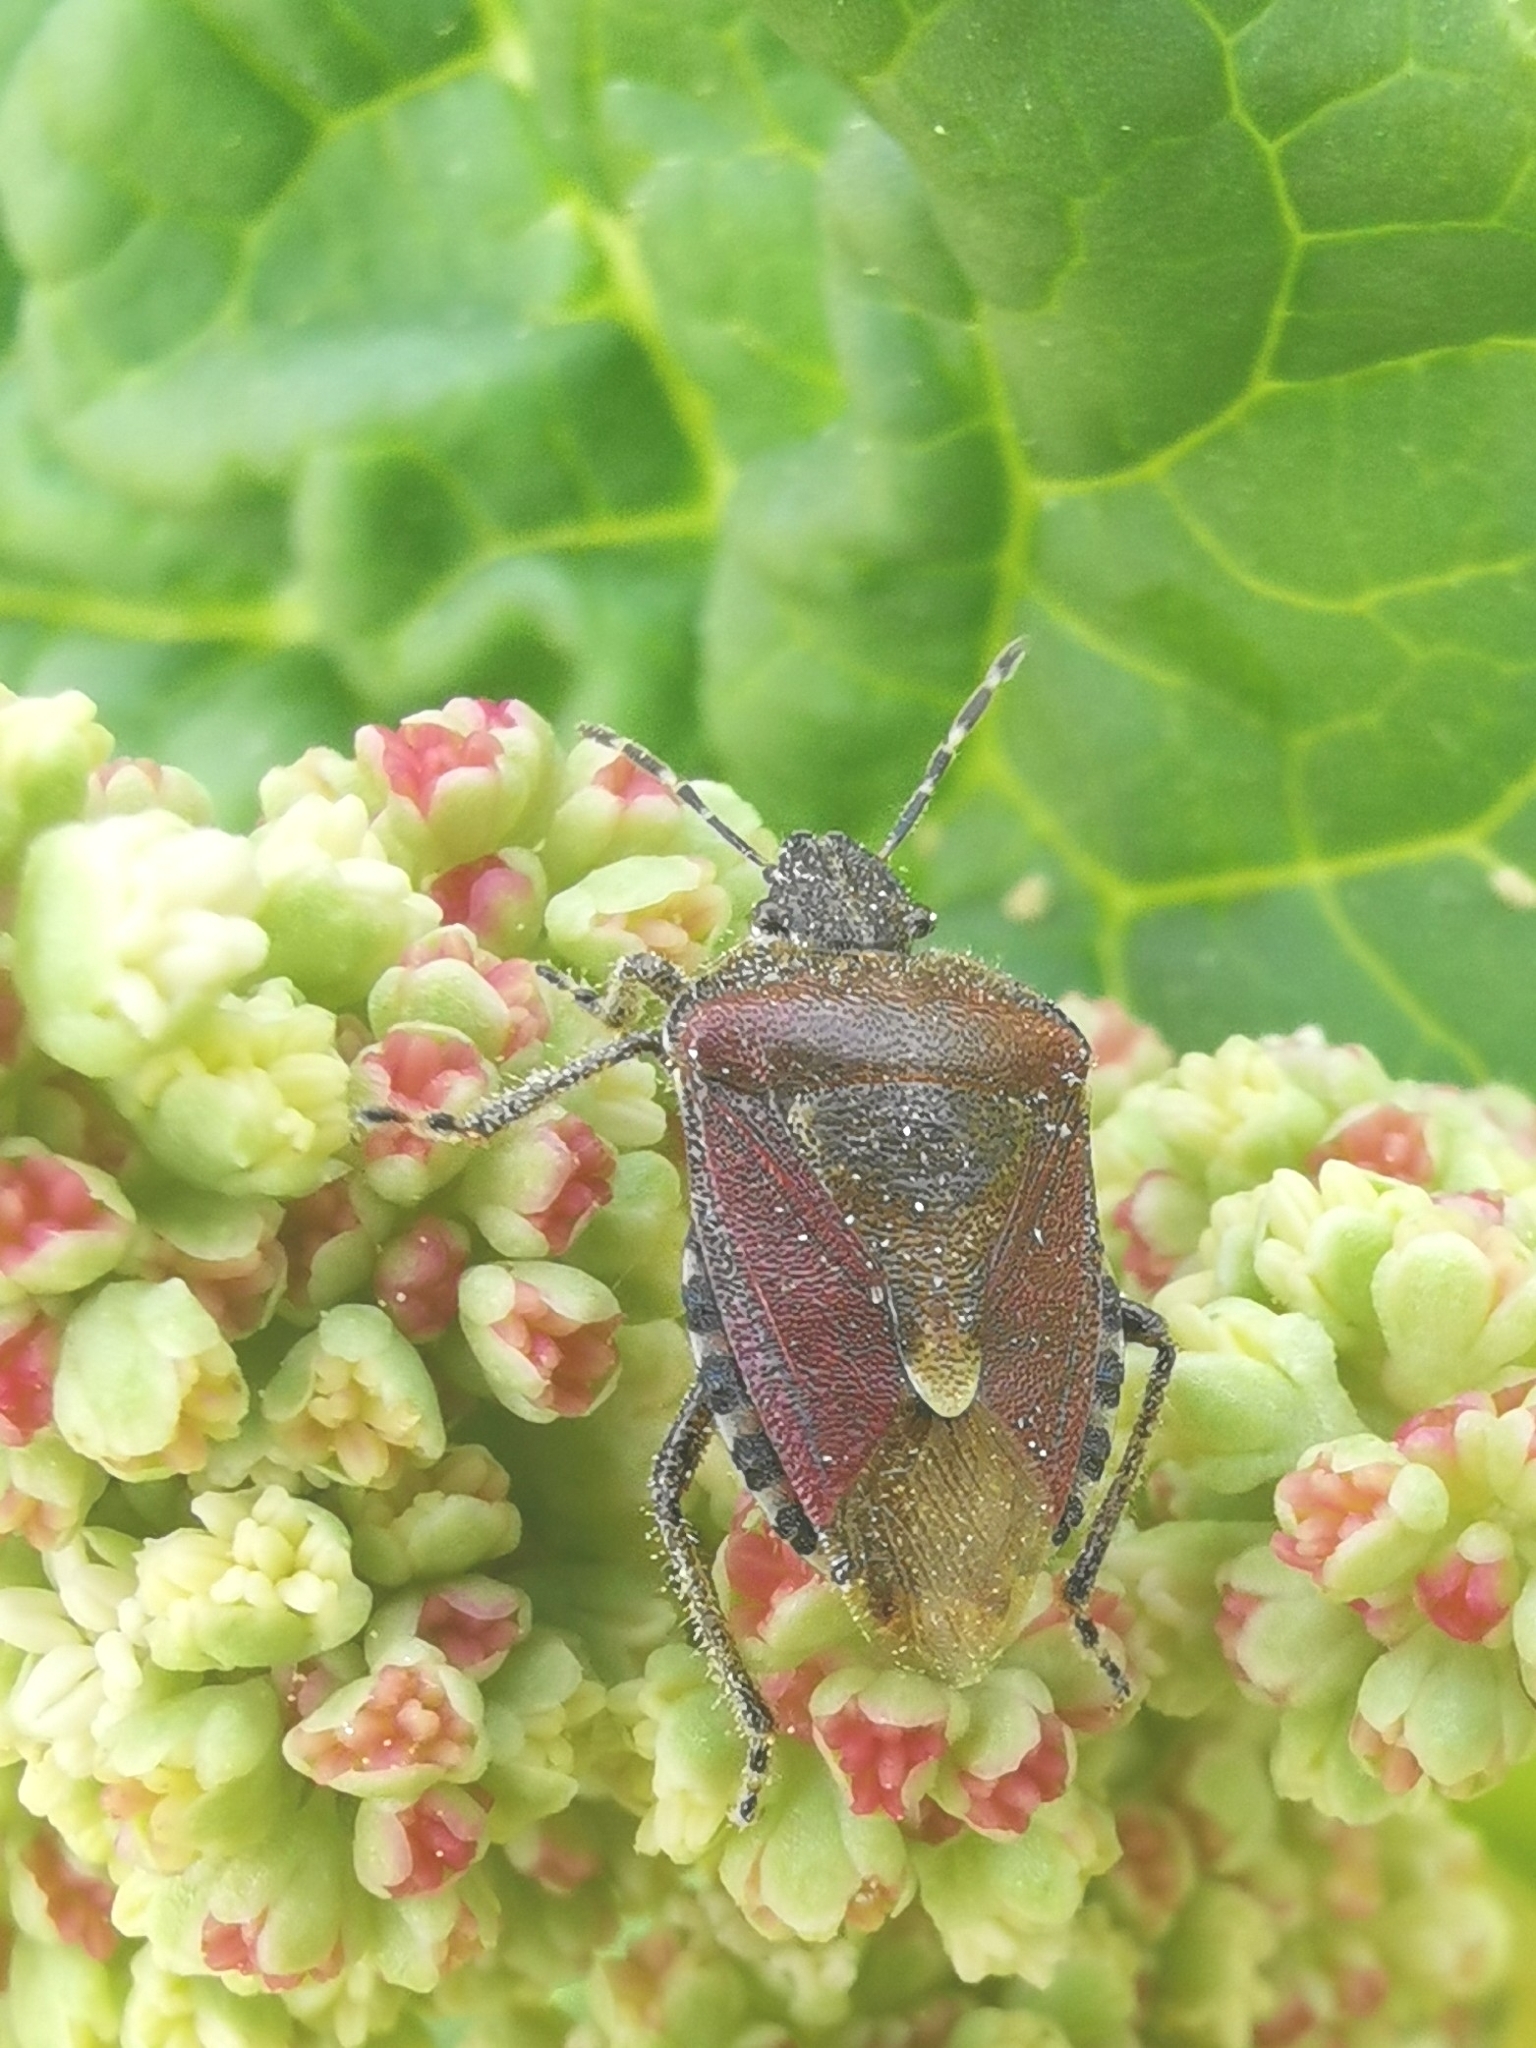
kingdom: Animalia
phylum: Arthropoda
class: Insecta
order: Hemiptera
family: Pentatomidae
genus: Dolycoris
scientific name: Dolycoris baccarum
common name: Sloe bug
